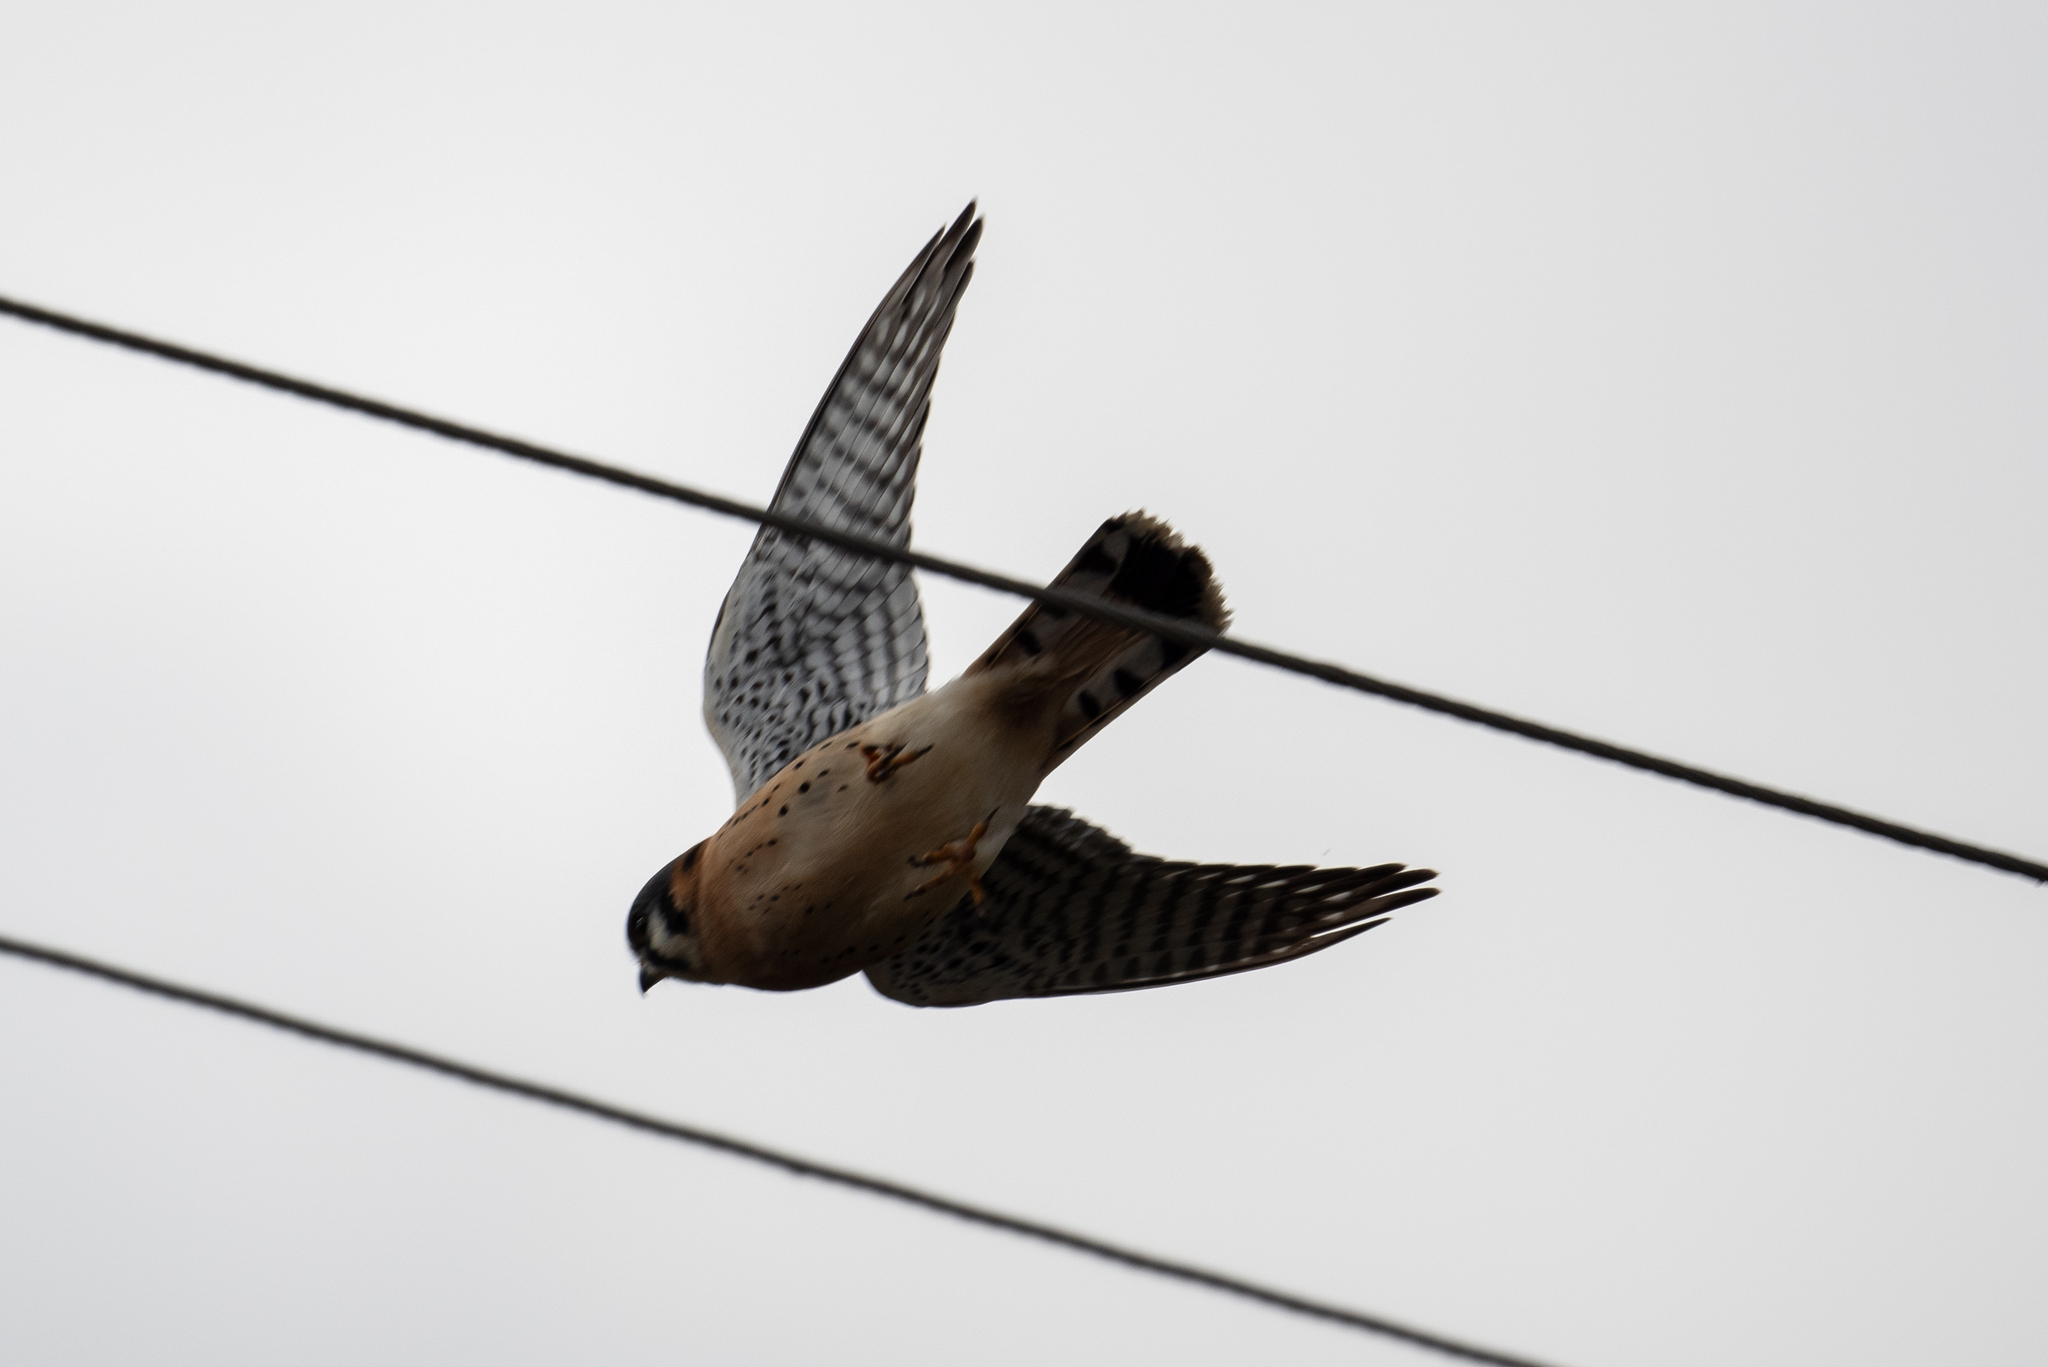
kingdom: Animalia
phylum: Chordata
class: Aves
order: Falconiformes
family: Falconidae
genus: Falco
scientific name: Falco sparverius
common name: American kestrel
